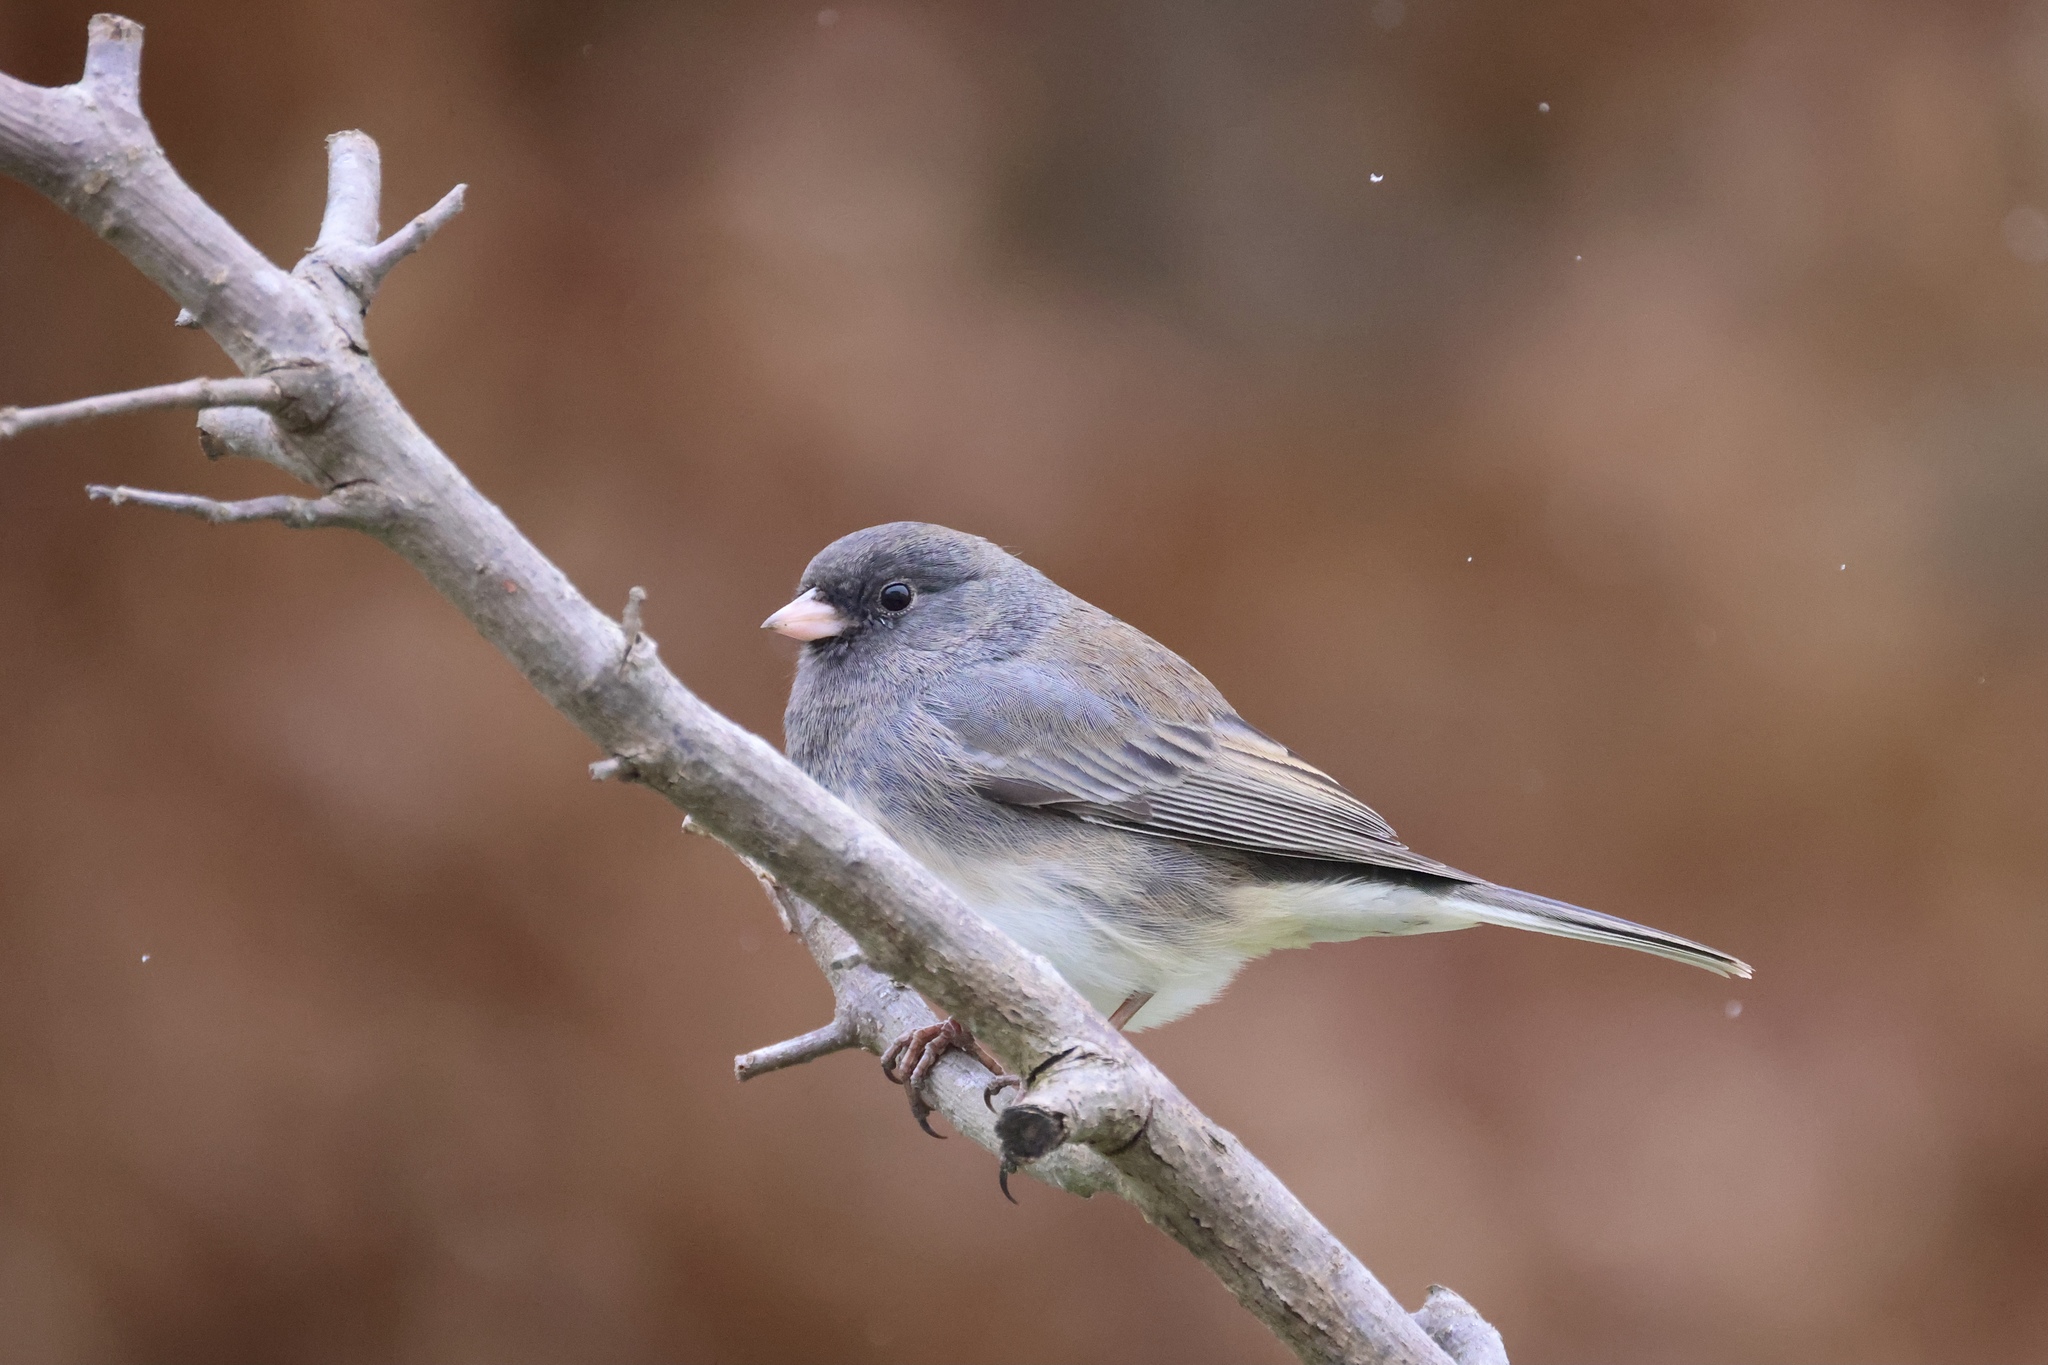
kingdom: Animalia
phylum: Chordata
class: Aves
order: Passeriformes
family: Passerellidae
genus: Junco
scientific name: Junco hyemalis
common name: Dark-eyed junco
